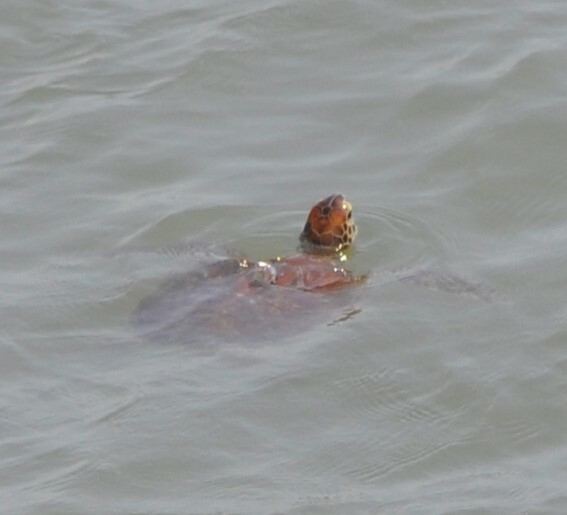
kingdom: Animalia
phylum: Chordata
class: Testudines
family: Cheloniidae
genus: Chelonia
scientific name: Chelonia mydas
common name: Green turtle
